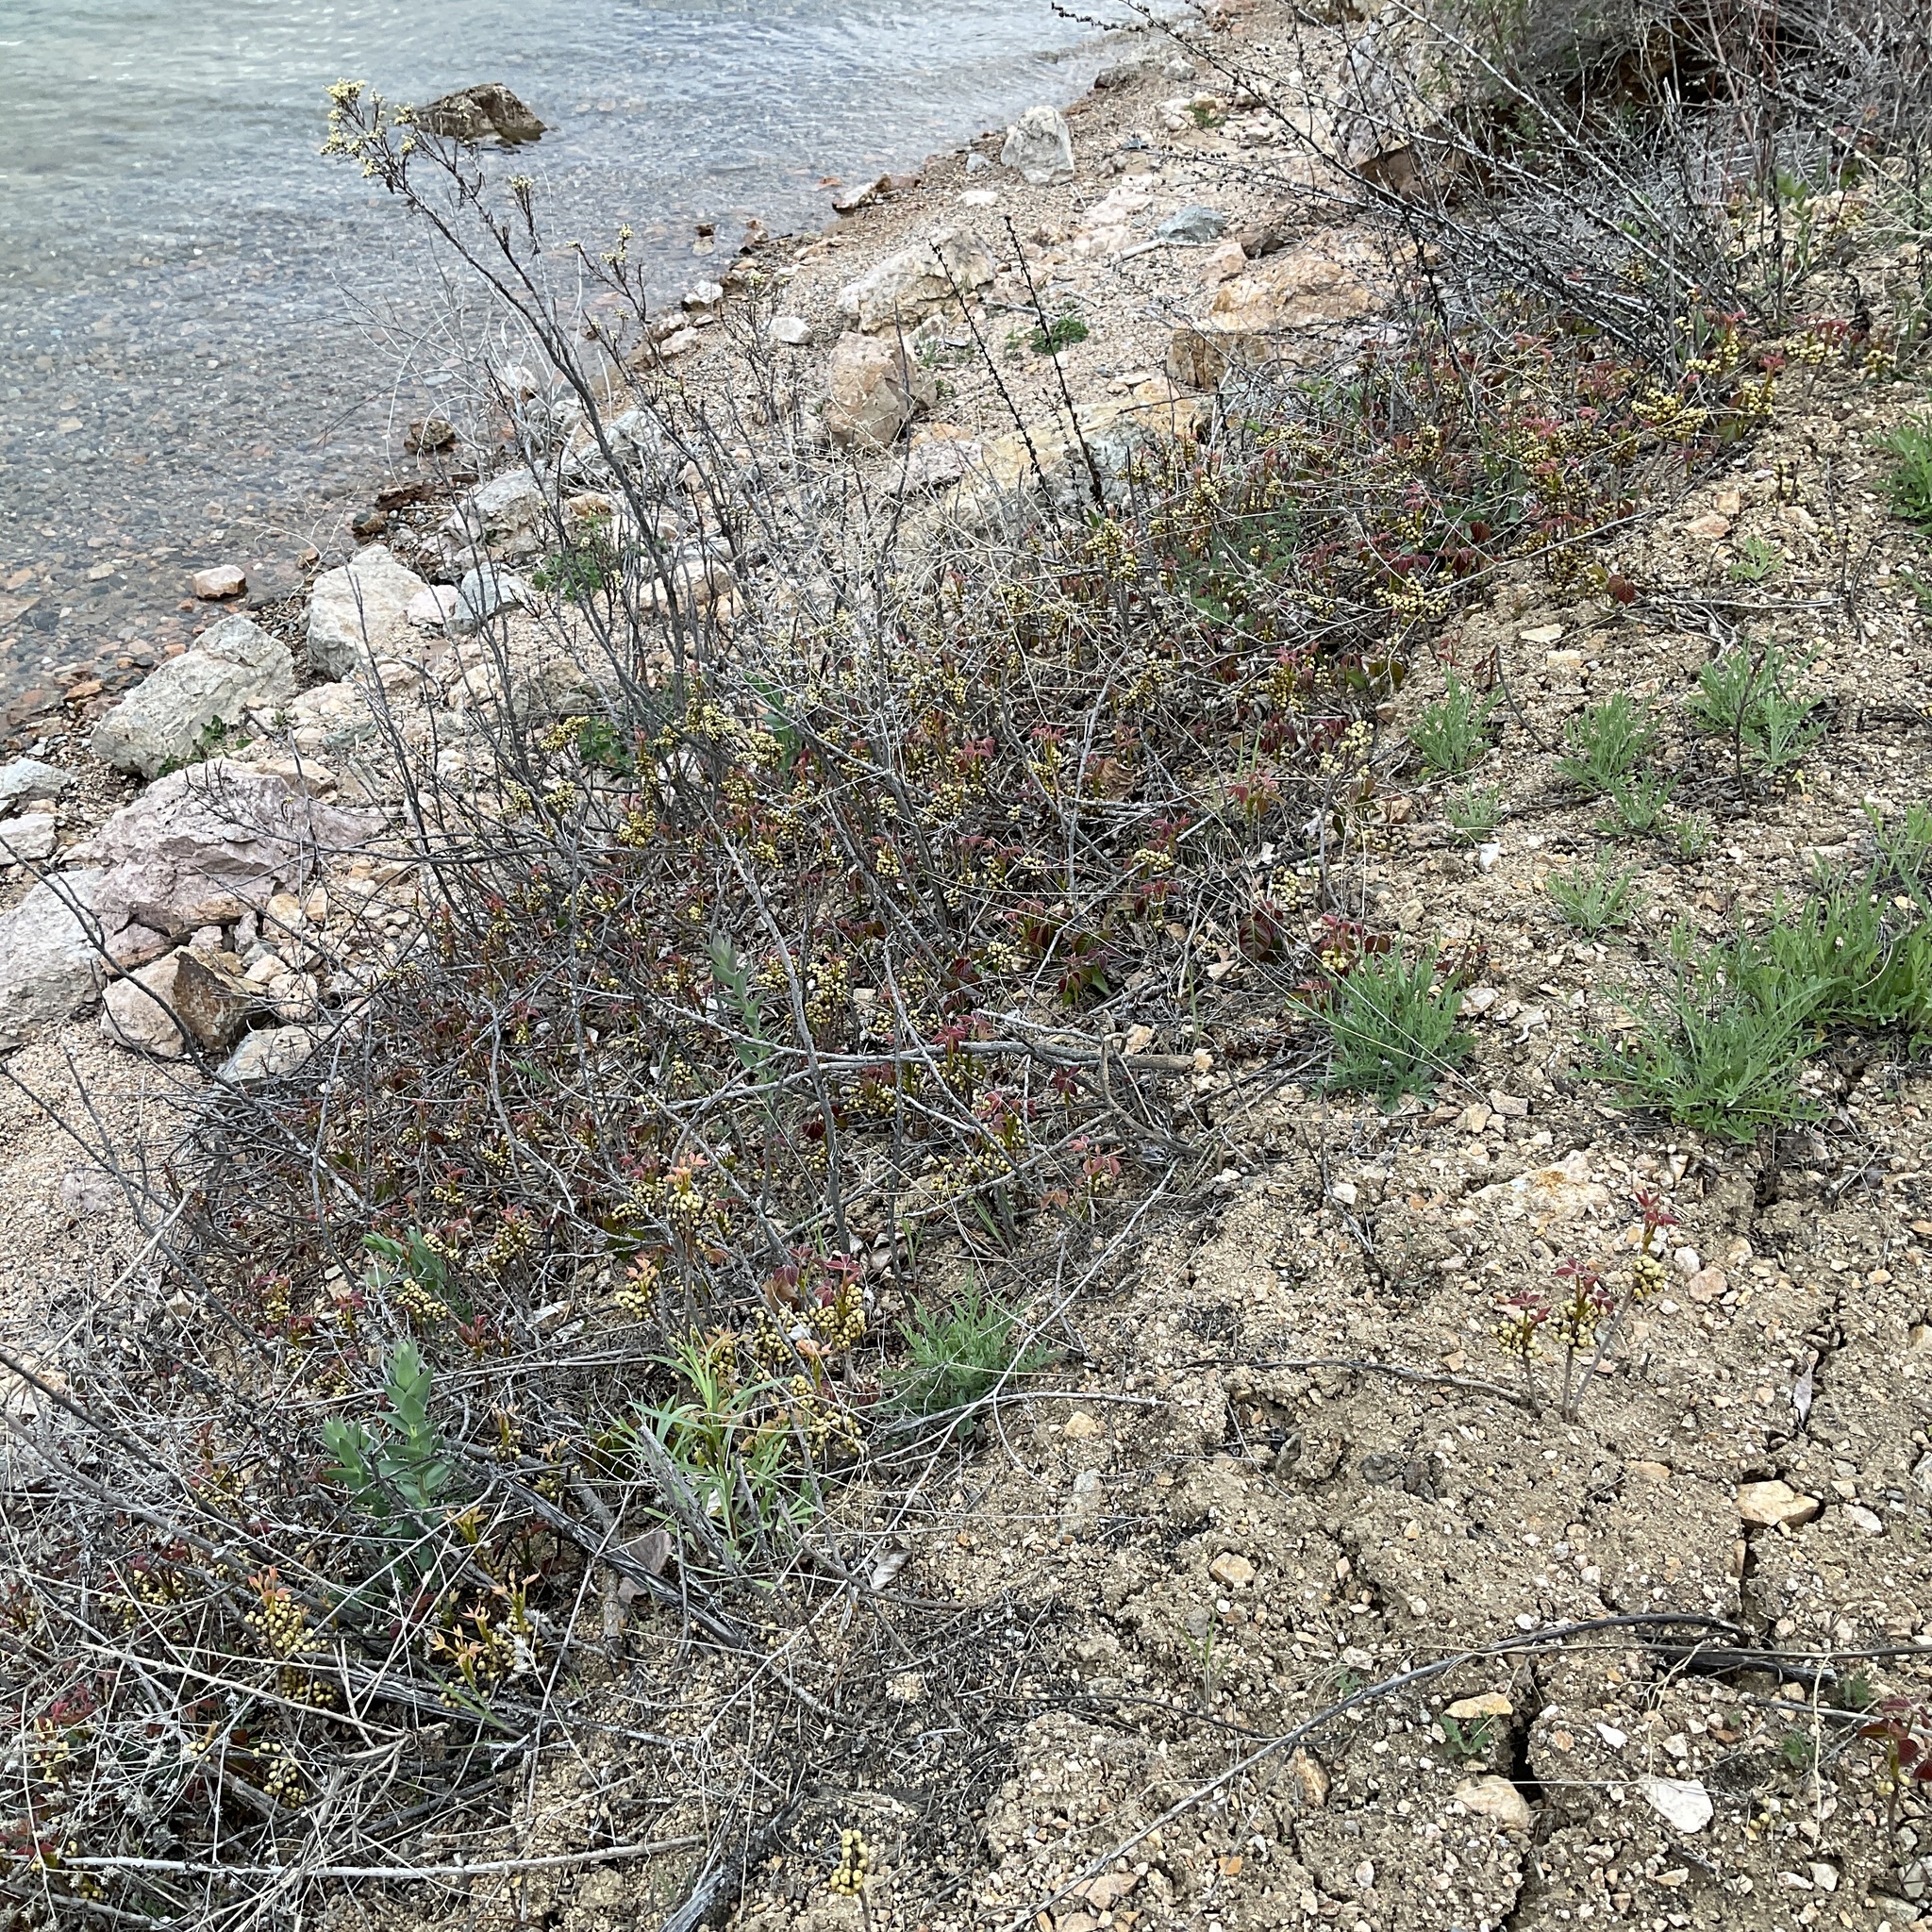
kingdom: Plantae
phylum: Tracheophyta
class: Magnoliopsida
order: Sapindales
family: Anacardiaceae
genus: Toxicodendron
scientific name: Toxicodendron rydbergii
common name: Rydberg's poison-ivy
